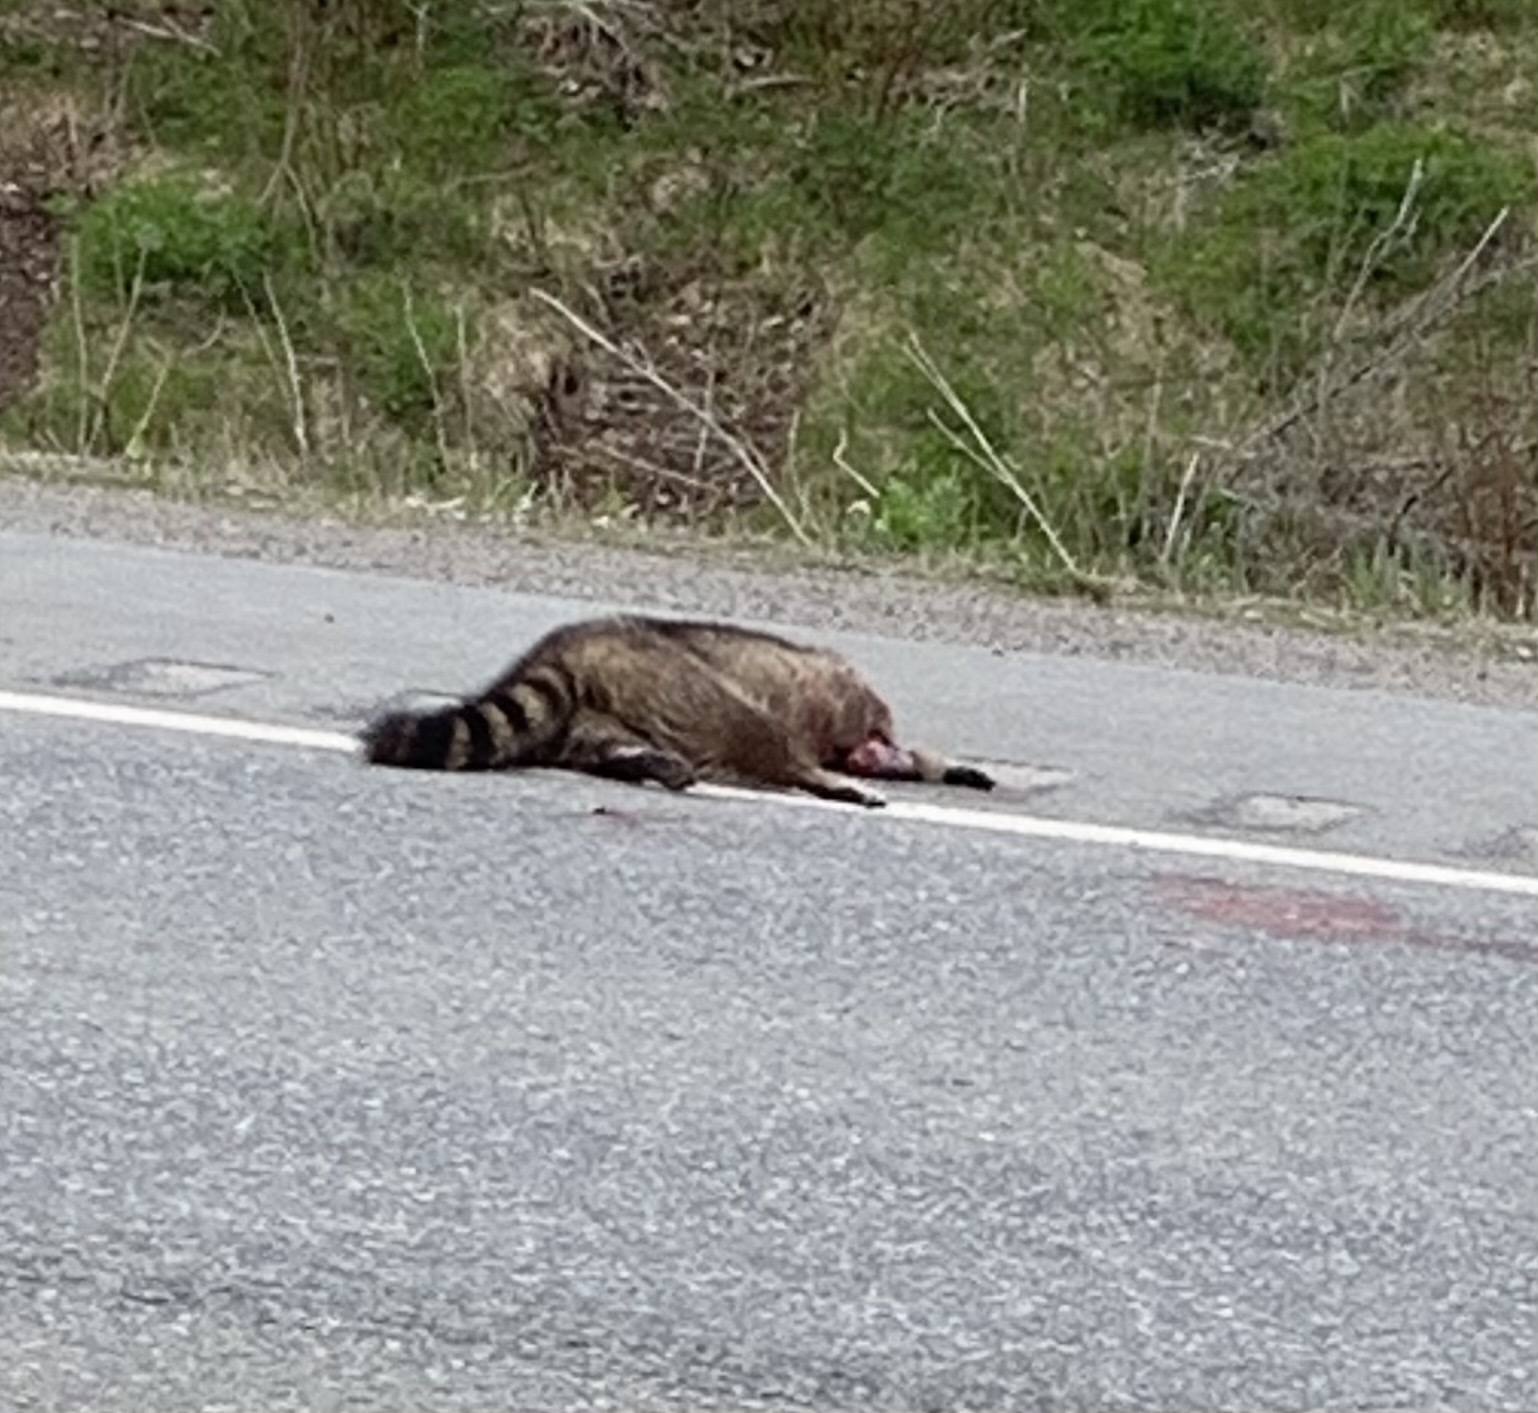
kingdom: Animalia
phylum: Chordata
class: Mammalia
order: Carnivora
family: Procyonidae
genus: Procyon
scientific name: Procyon lotor
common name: Raccoon
